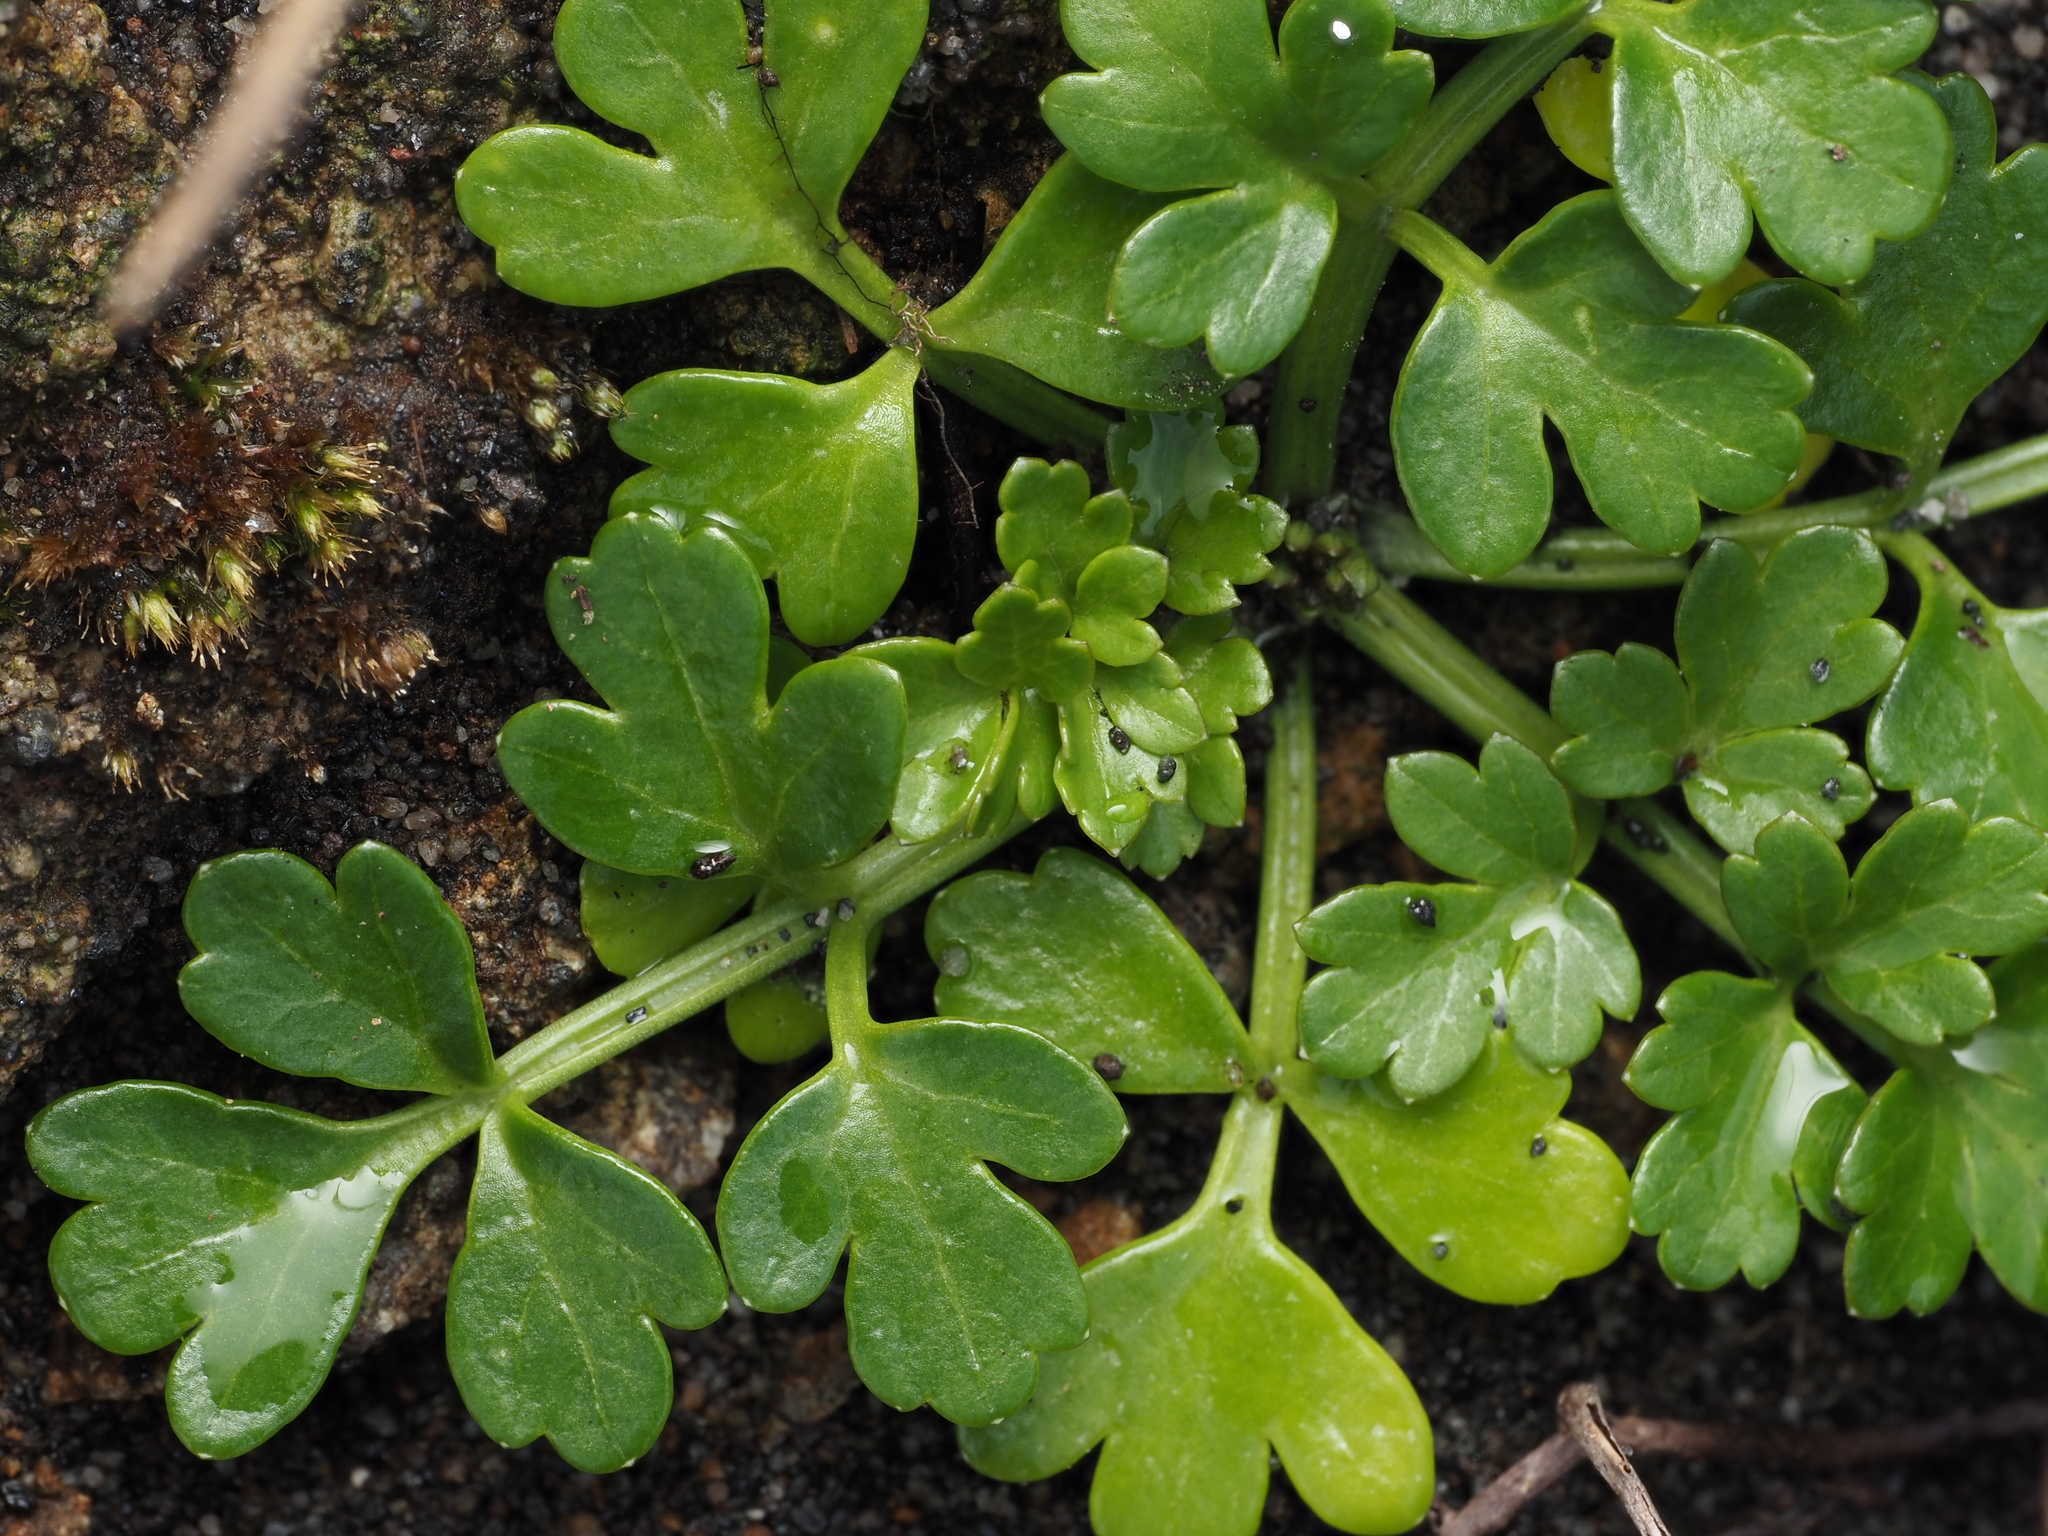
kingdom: Plantae
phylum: Tracheophyta
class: Magnoliopsida
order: Apiales
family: Apiaceae
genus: Apium
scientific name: Apium prostratum
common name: Prostrate marshwort
